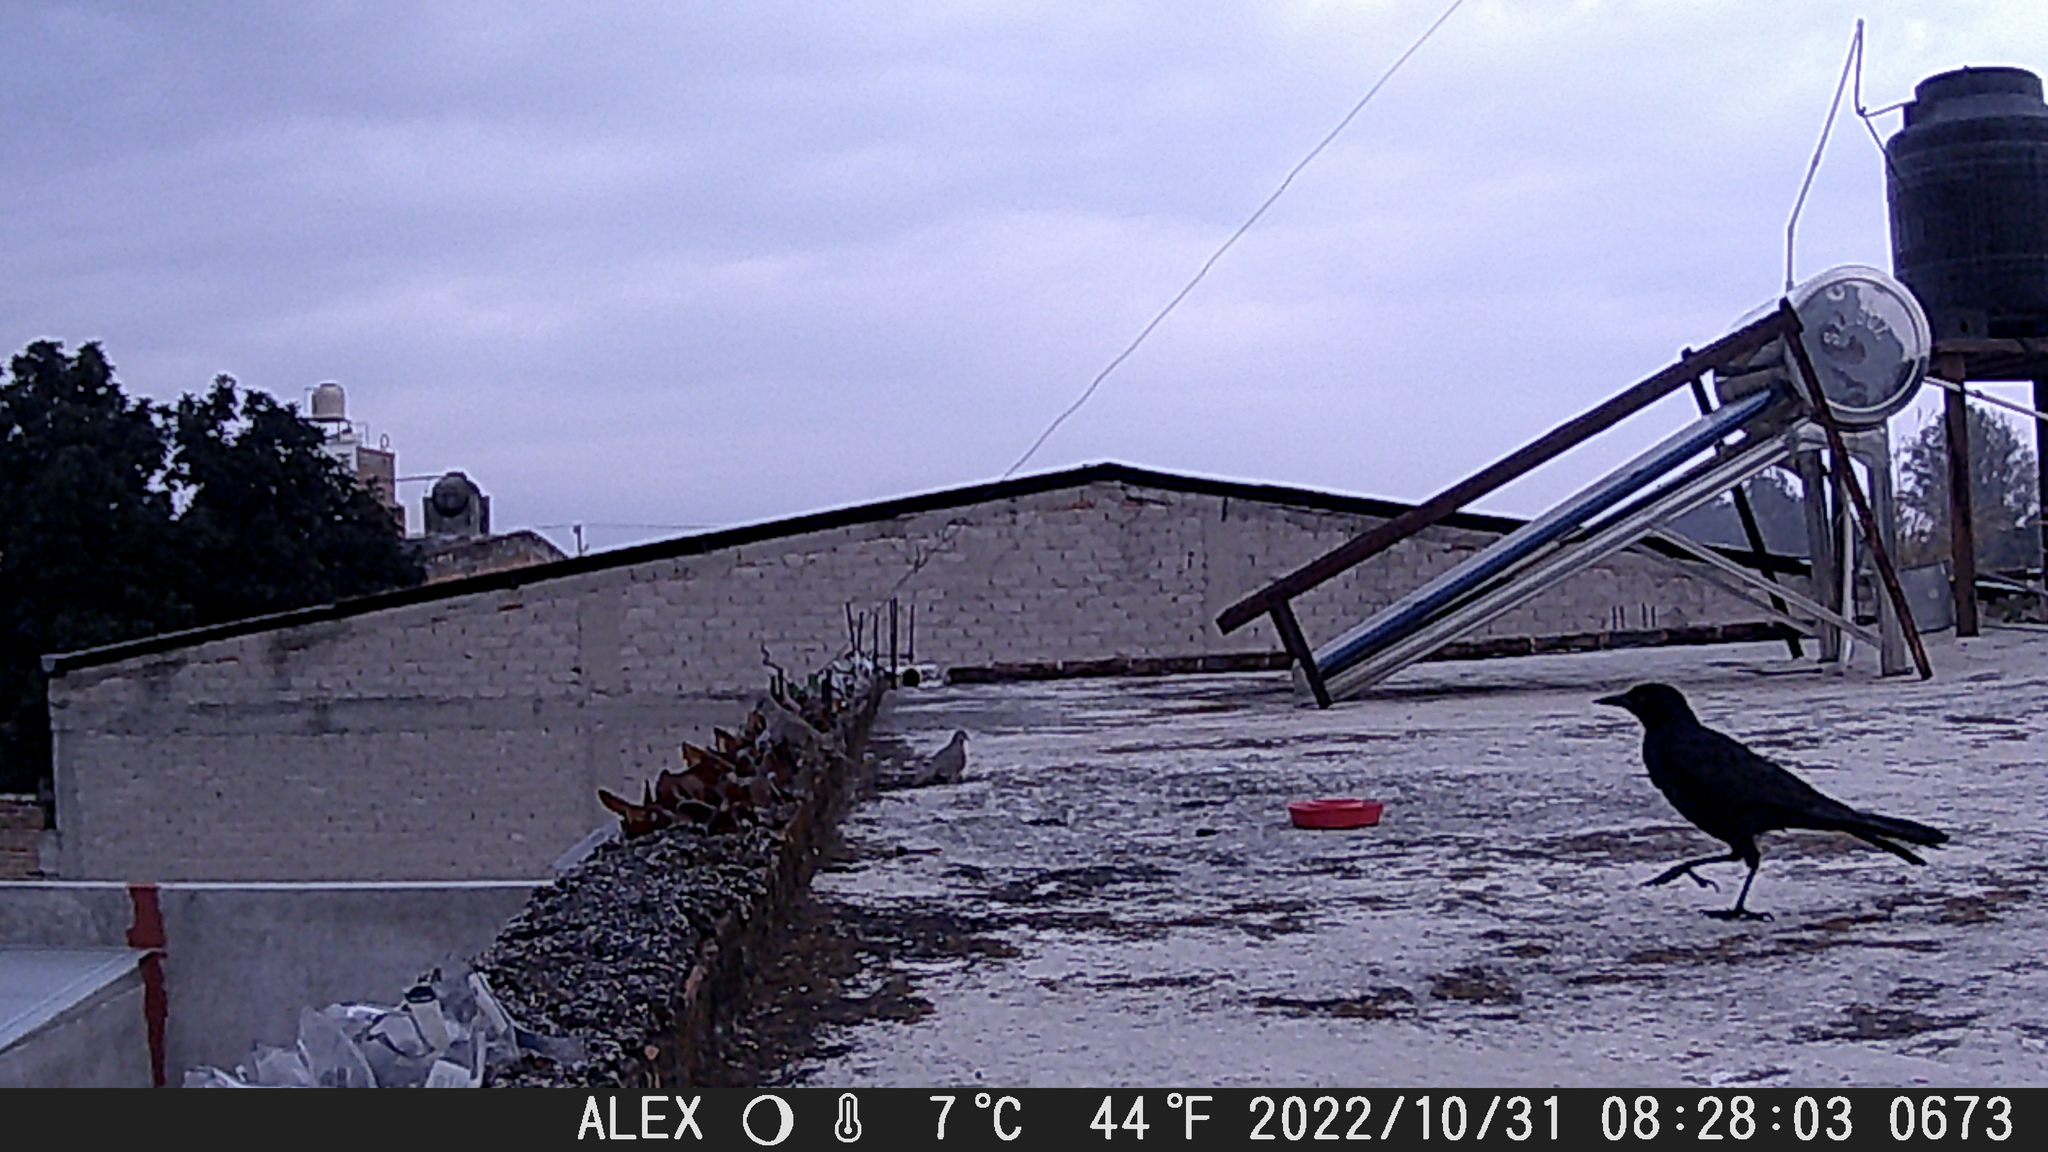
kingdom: Animalia
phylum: Chordata
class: Aves
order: Columbiformes
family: Columbidae
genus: Columbina
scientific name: Columbina inca
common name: Inca dove
